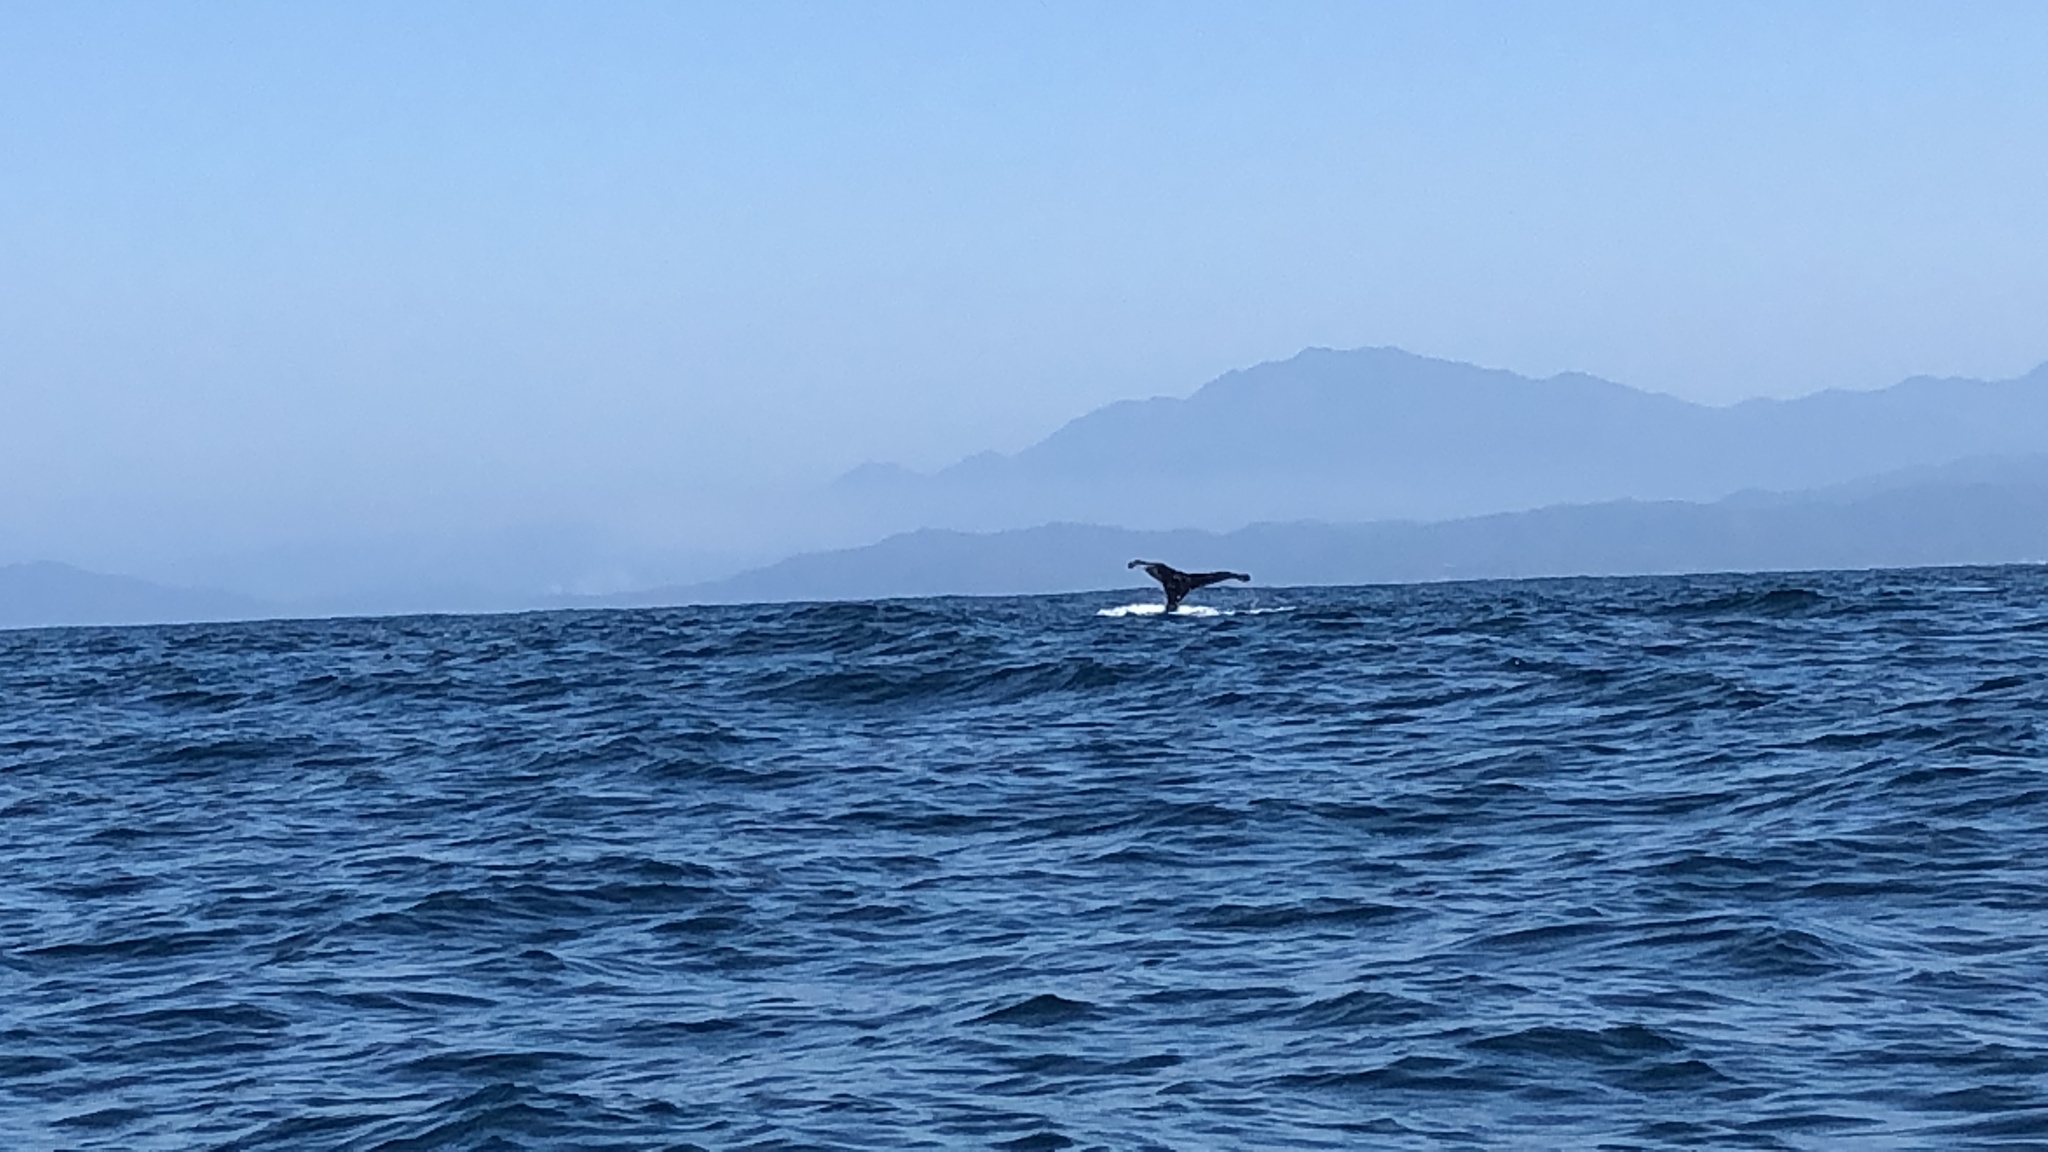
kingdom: Animalia
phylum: Chordata
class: Mammalia
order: Cetacea
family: Balaenopteridae
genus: Megaptera
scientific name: Megaptera novaeangliae
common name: Humpback whale
